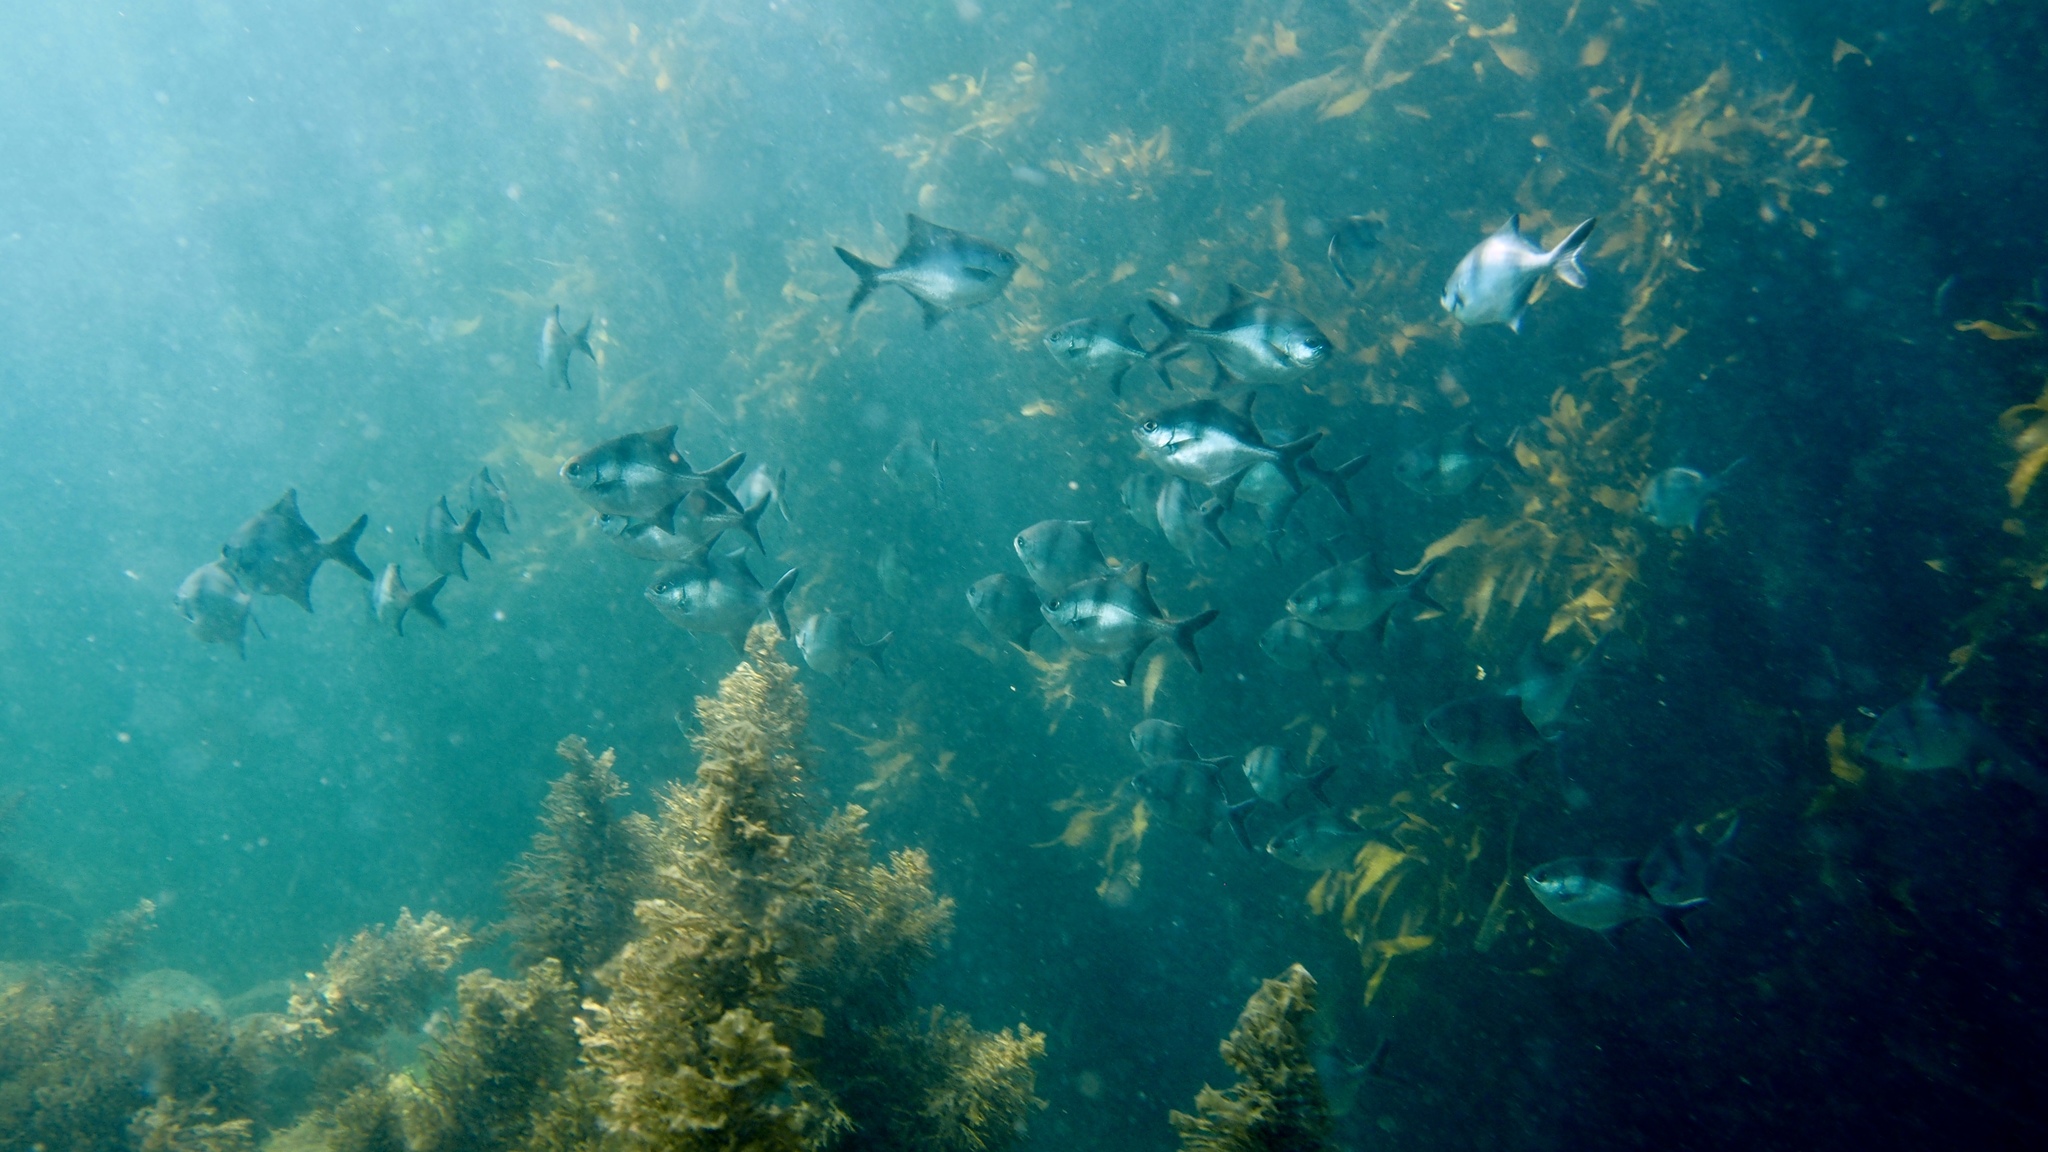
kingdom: Animalia
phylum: Chordata
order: Perciformes
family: Kyphosidae
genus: Scorpis
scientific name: Scorpis aequipinnis
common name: Sea sweep
